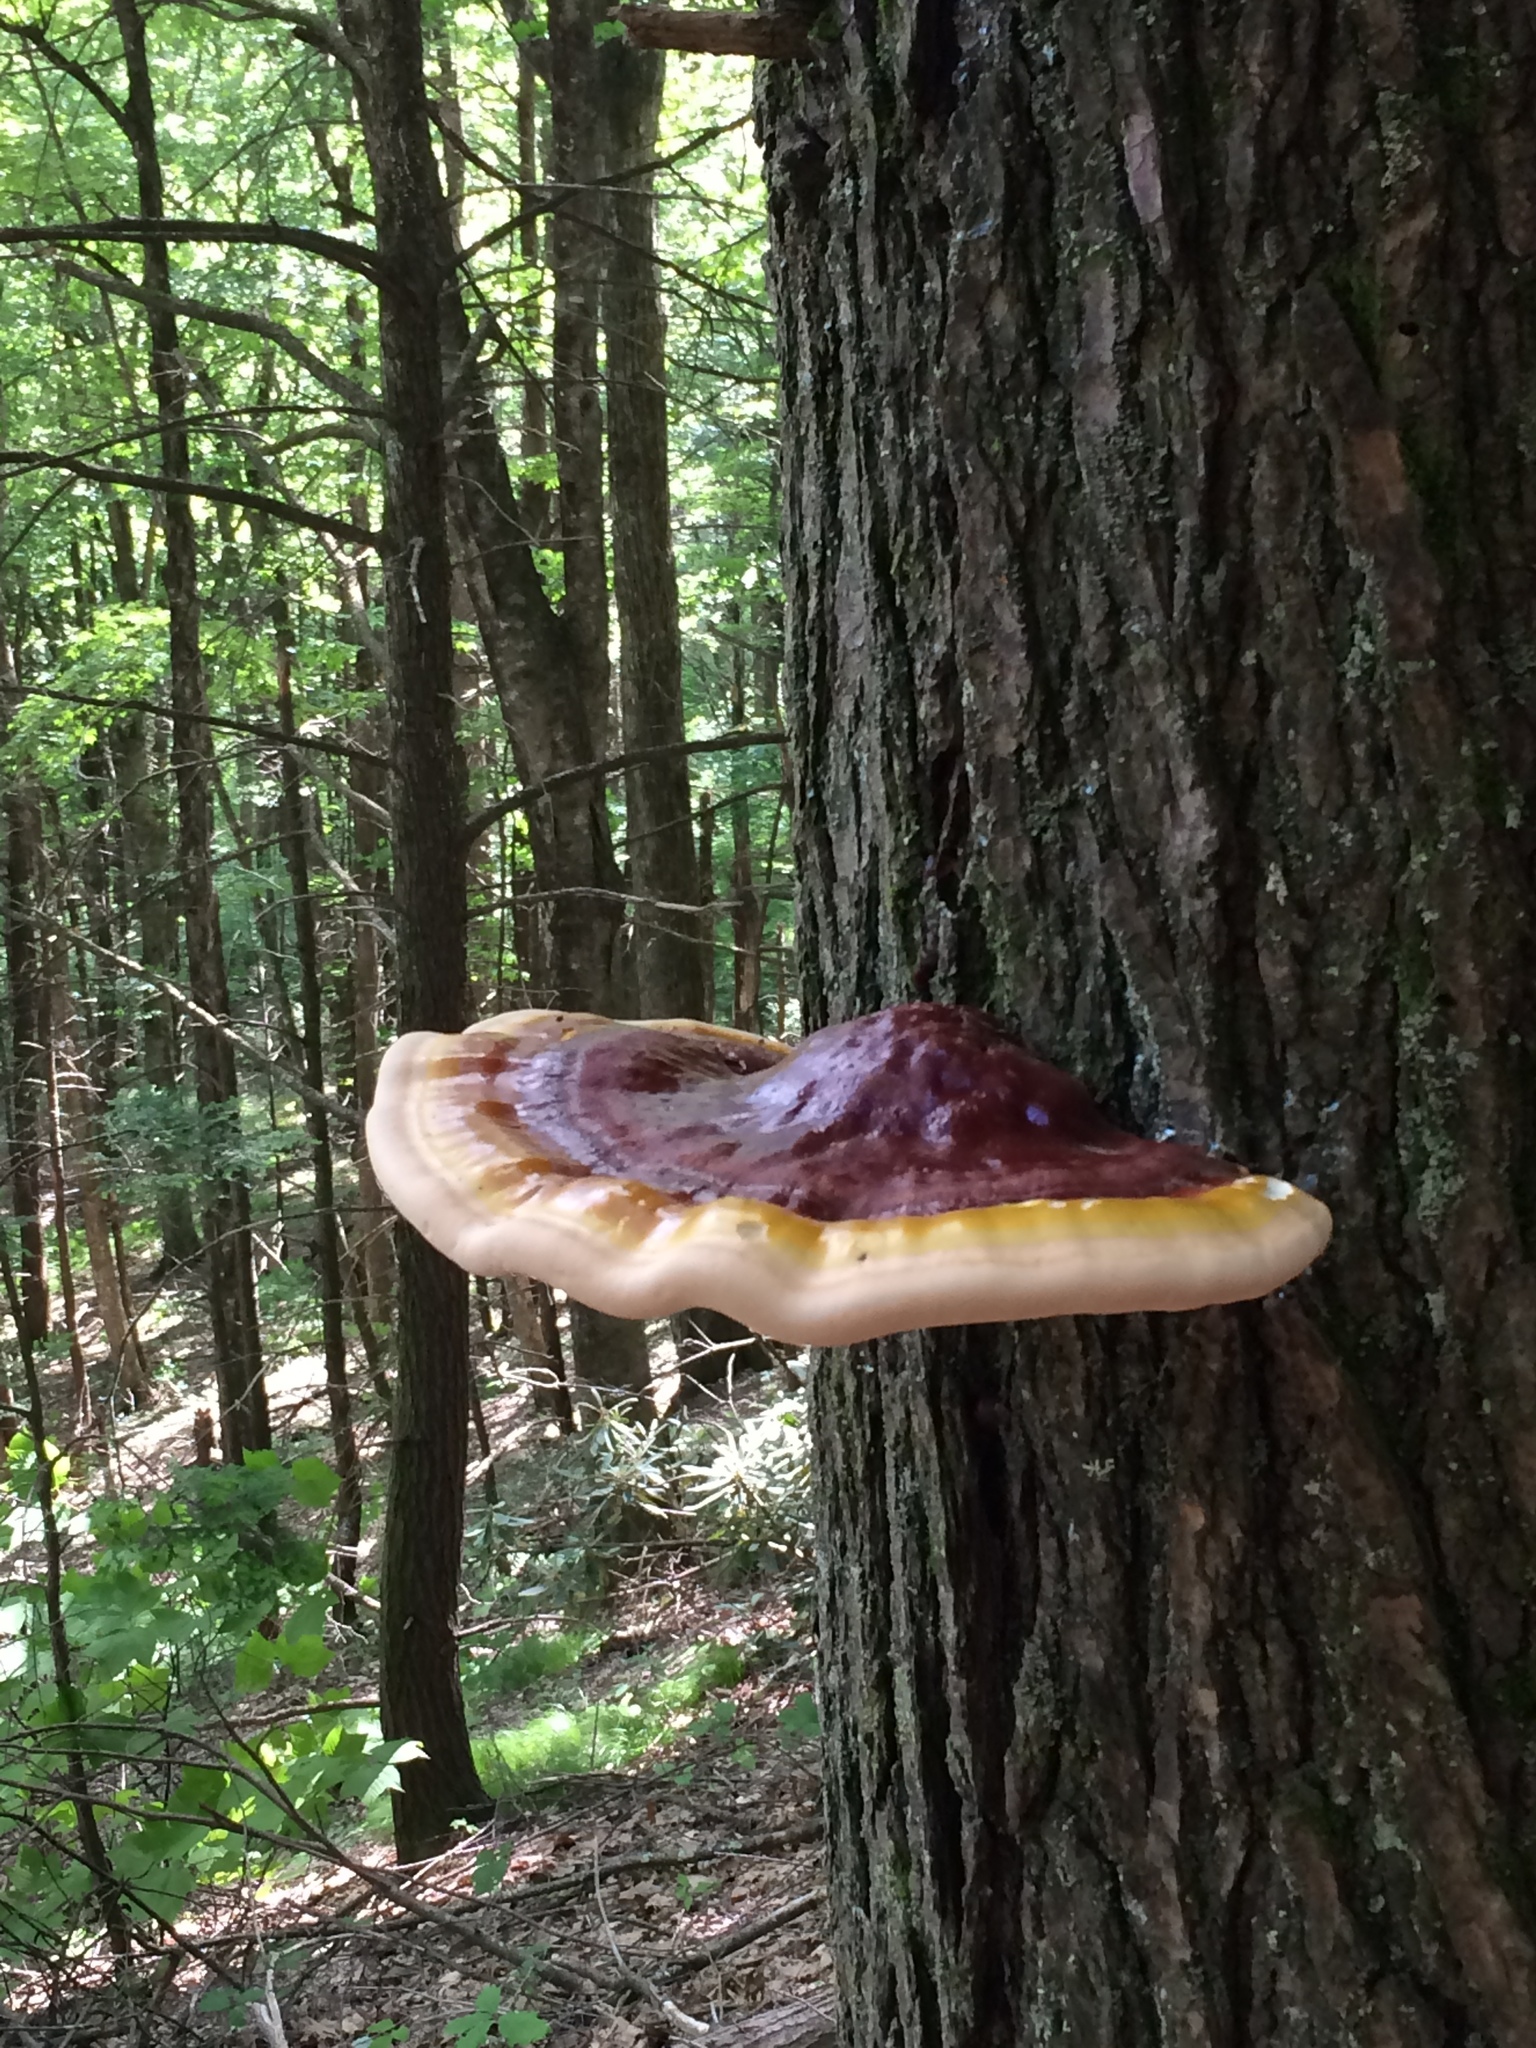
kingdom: Fungi
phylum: Basidiomycota
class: Agaricomycetes
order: Polyporales
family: Polyporaceae
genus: Ganoderma
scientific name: Ganoderma tsugae
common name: Hemlock varnish shelf
